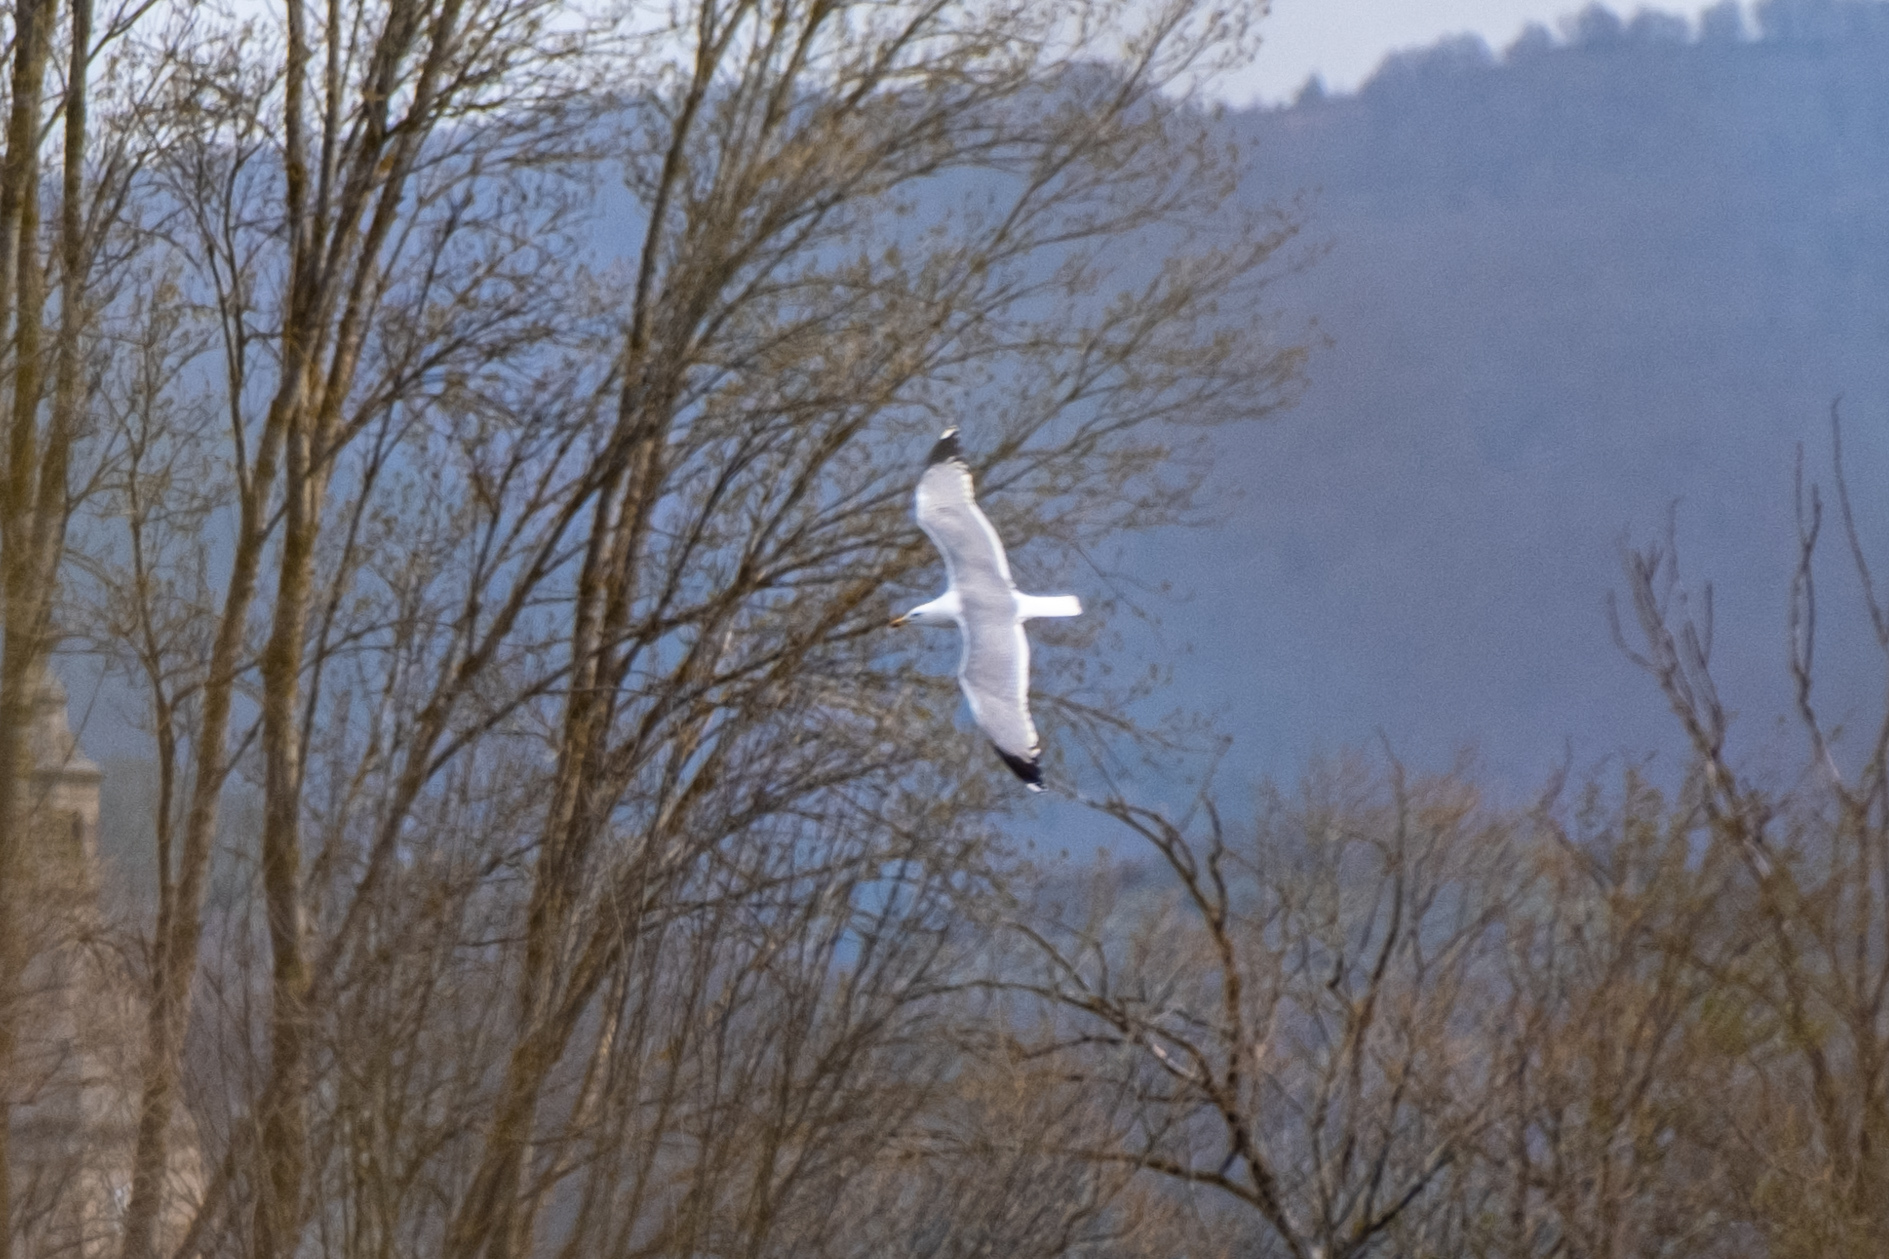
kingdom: Animalia
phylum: Chordata
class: Aves
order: Charadriiformes
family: Laridae
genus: Larus
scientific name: Larus michahellis
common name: Yellow-legged gull
